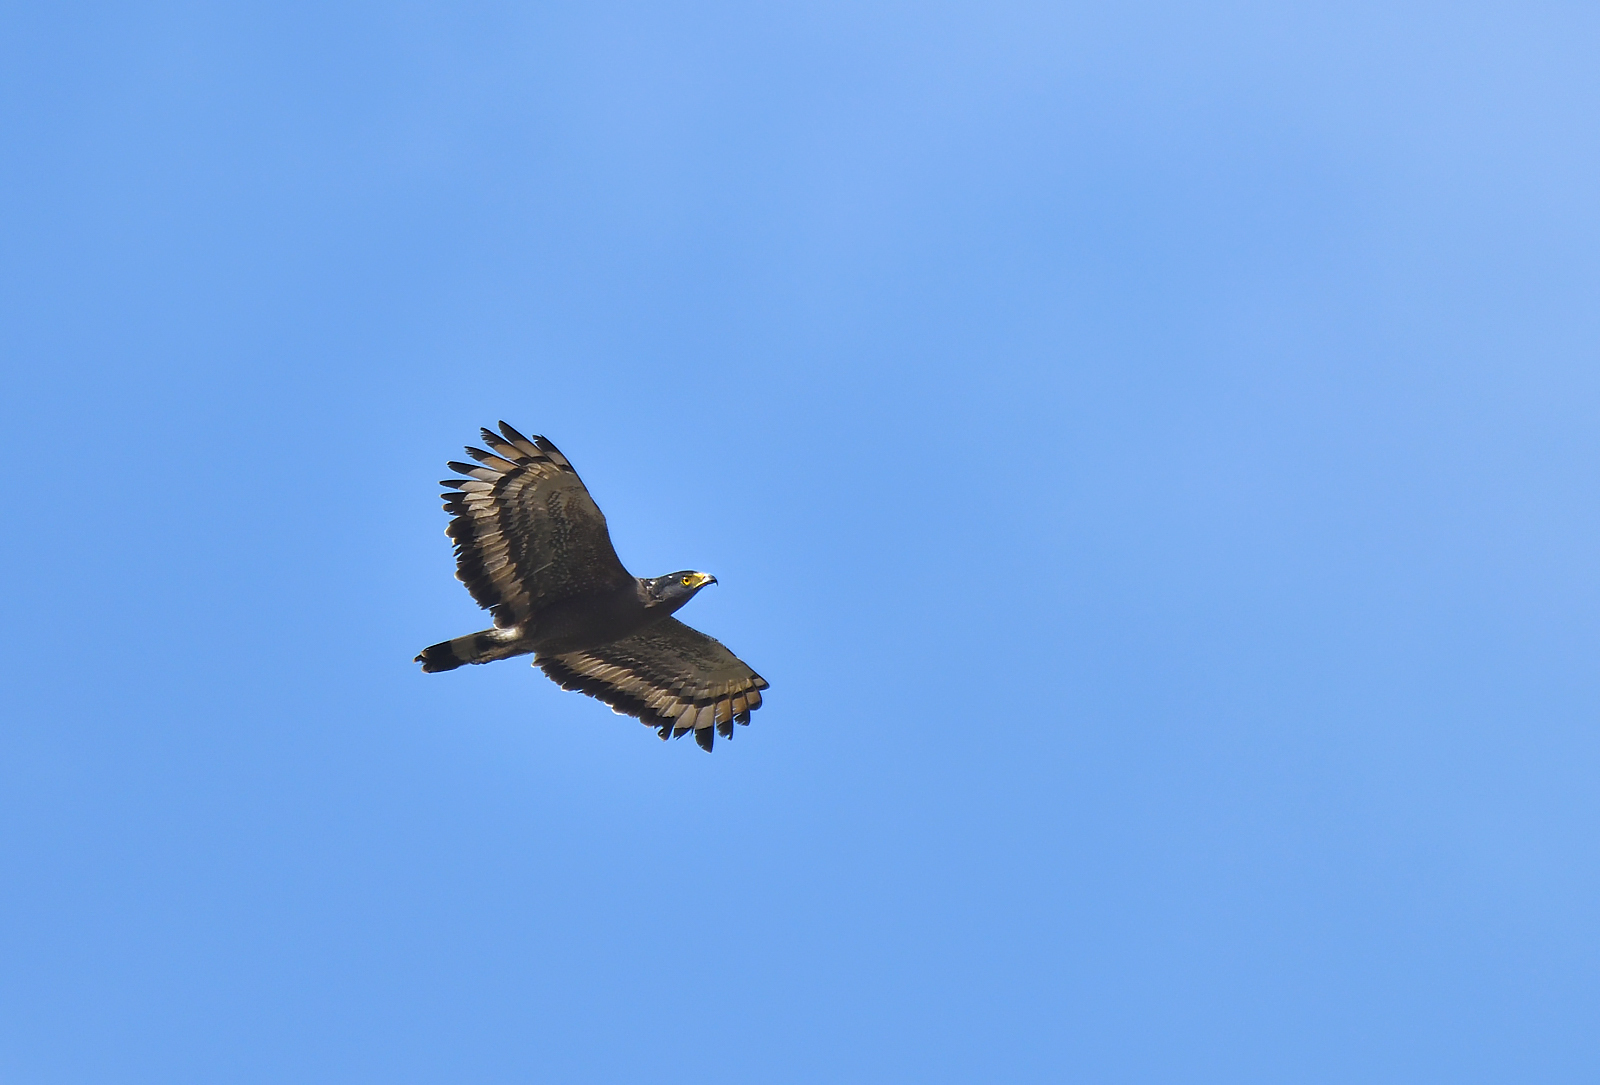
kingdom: Animalia
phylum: Chordata
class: Aves
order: Accipitriformes
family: Accipitridae
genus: Spilornis
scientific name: Spilornis cheela
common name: Crested serpent eagle
